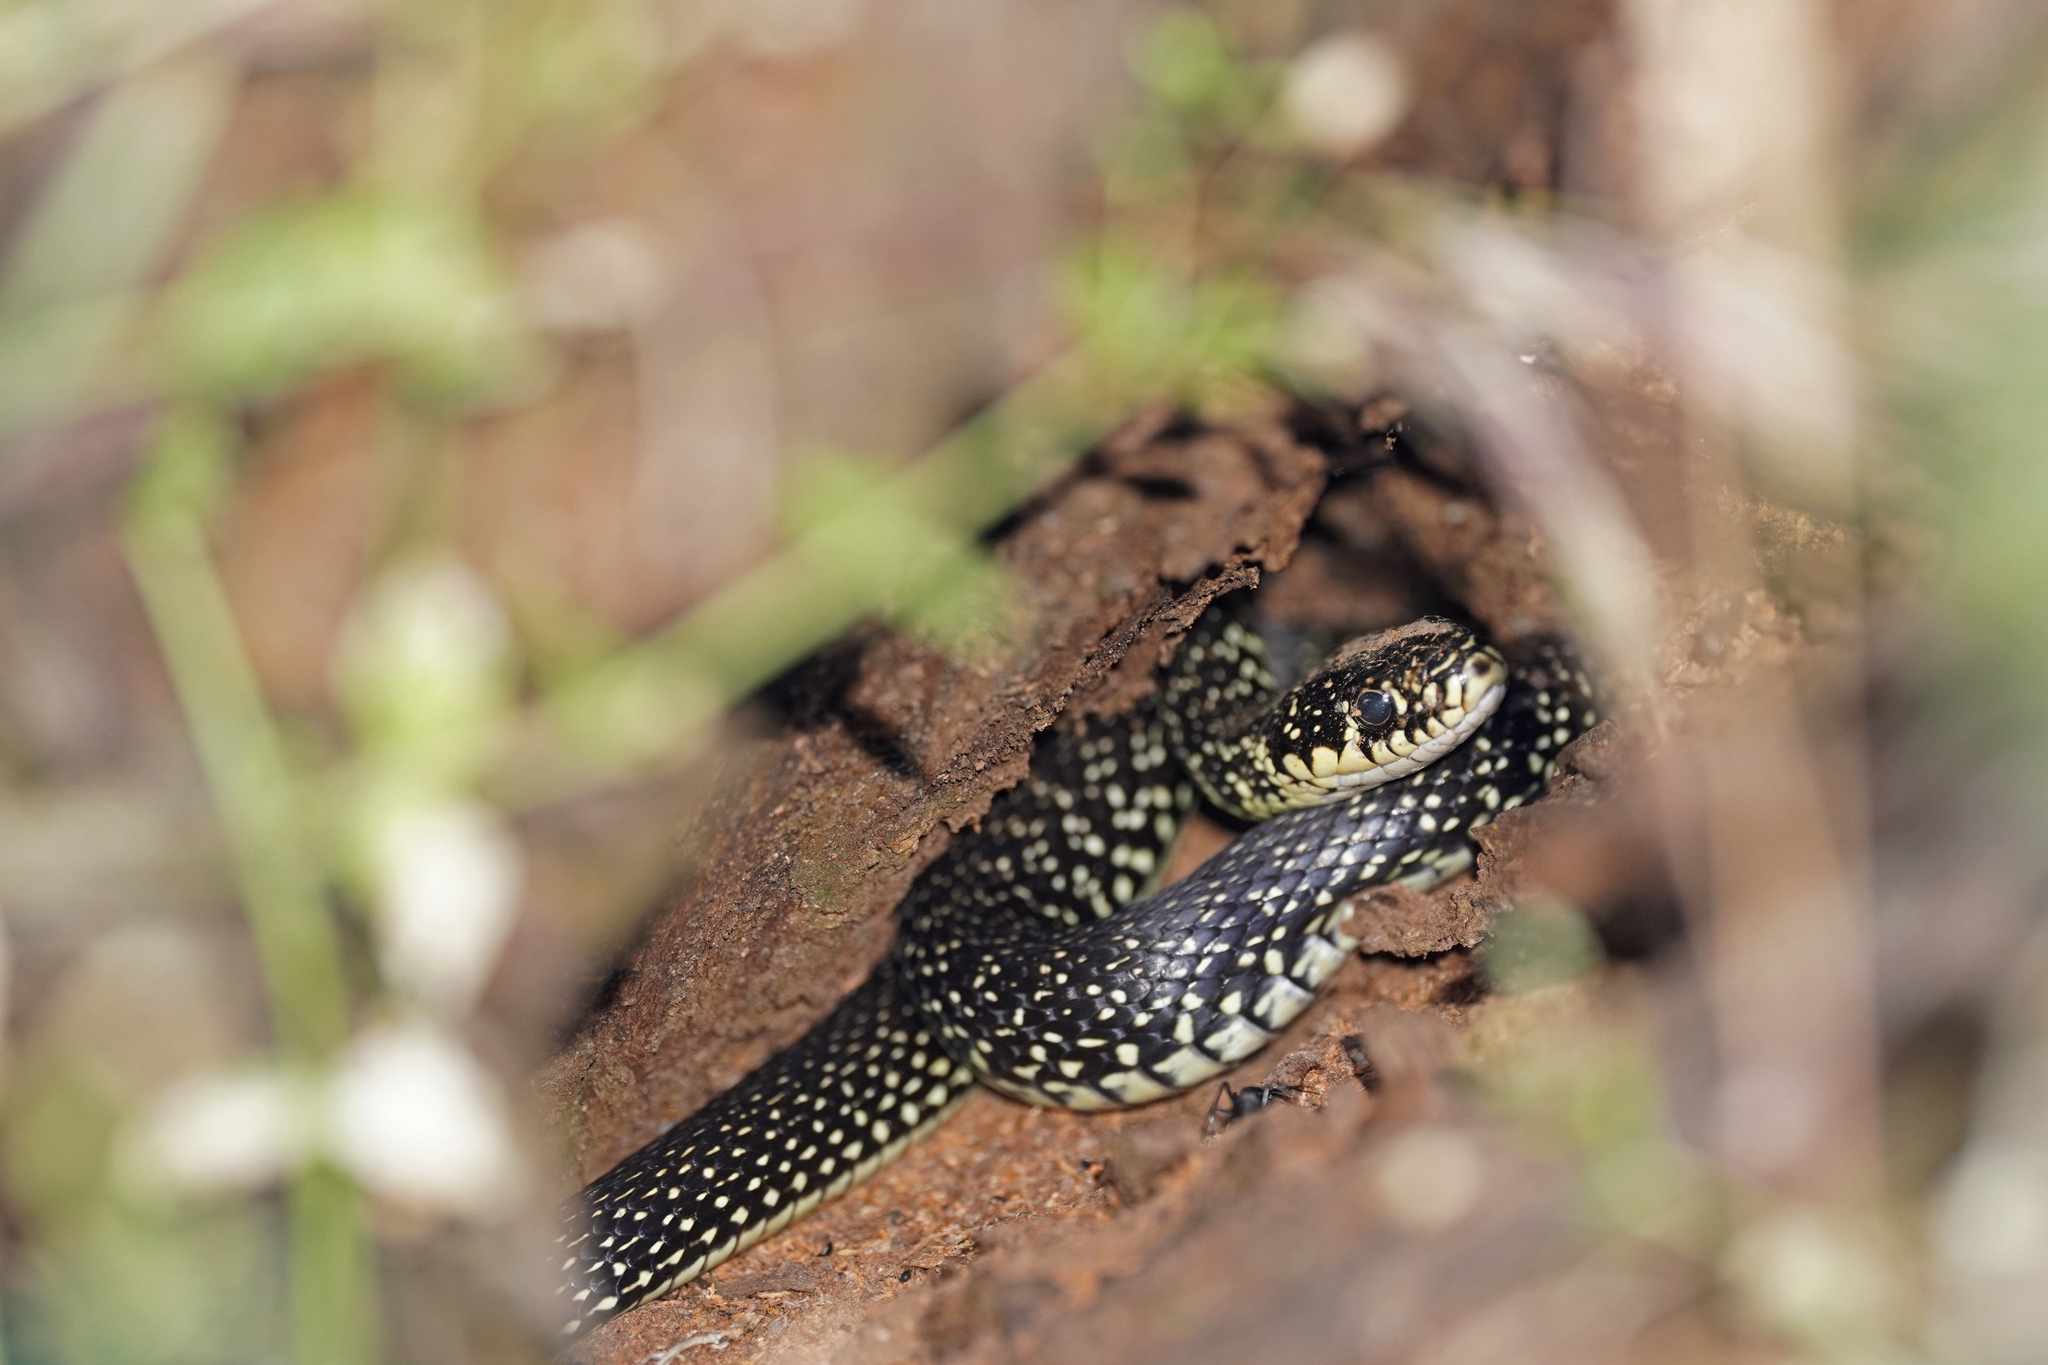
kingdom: Animalia
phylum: Chordata
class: Squamata
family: Colubridae
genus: Hierophis
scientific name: Hierophis viridiflavus
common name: Green whip snake
